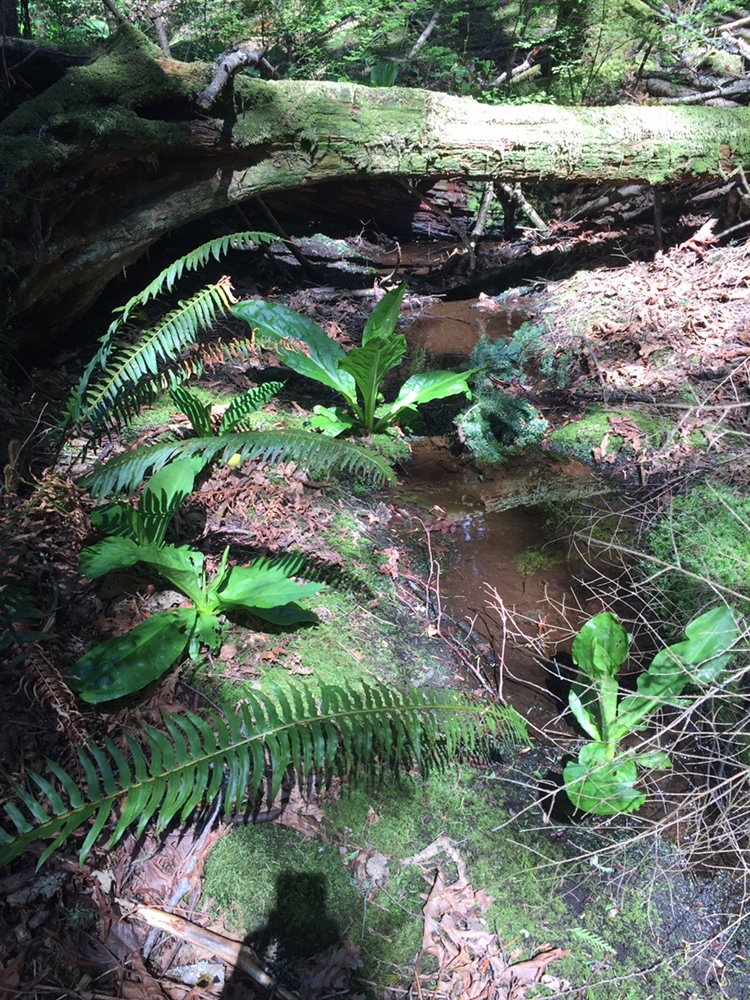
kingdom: Plantae
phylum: Tracheophyta
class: Liliopsida
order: Alismatales
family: Araceae
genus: Lysichiton
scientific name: Lysichiton americanus
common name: American skunk cabbage
